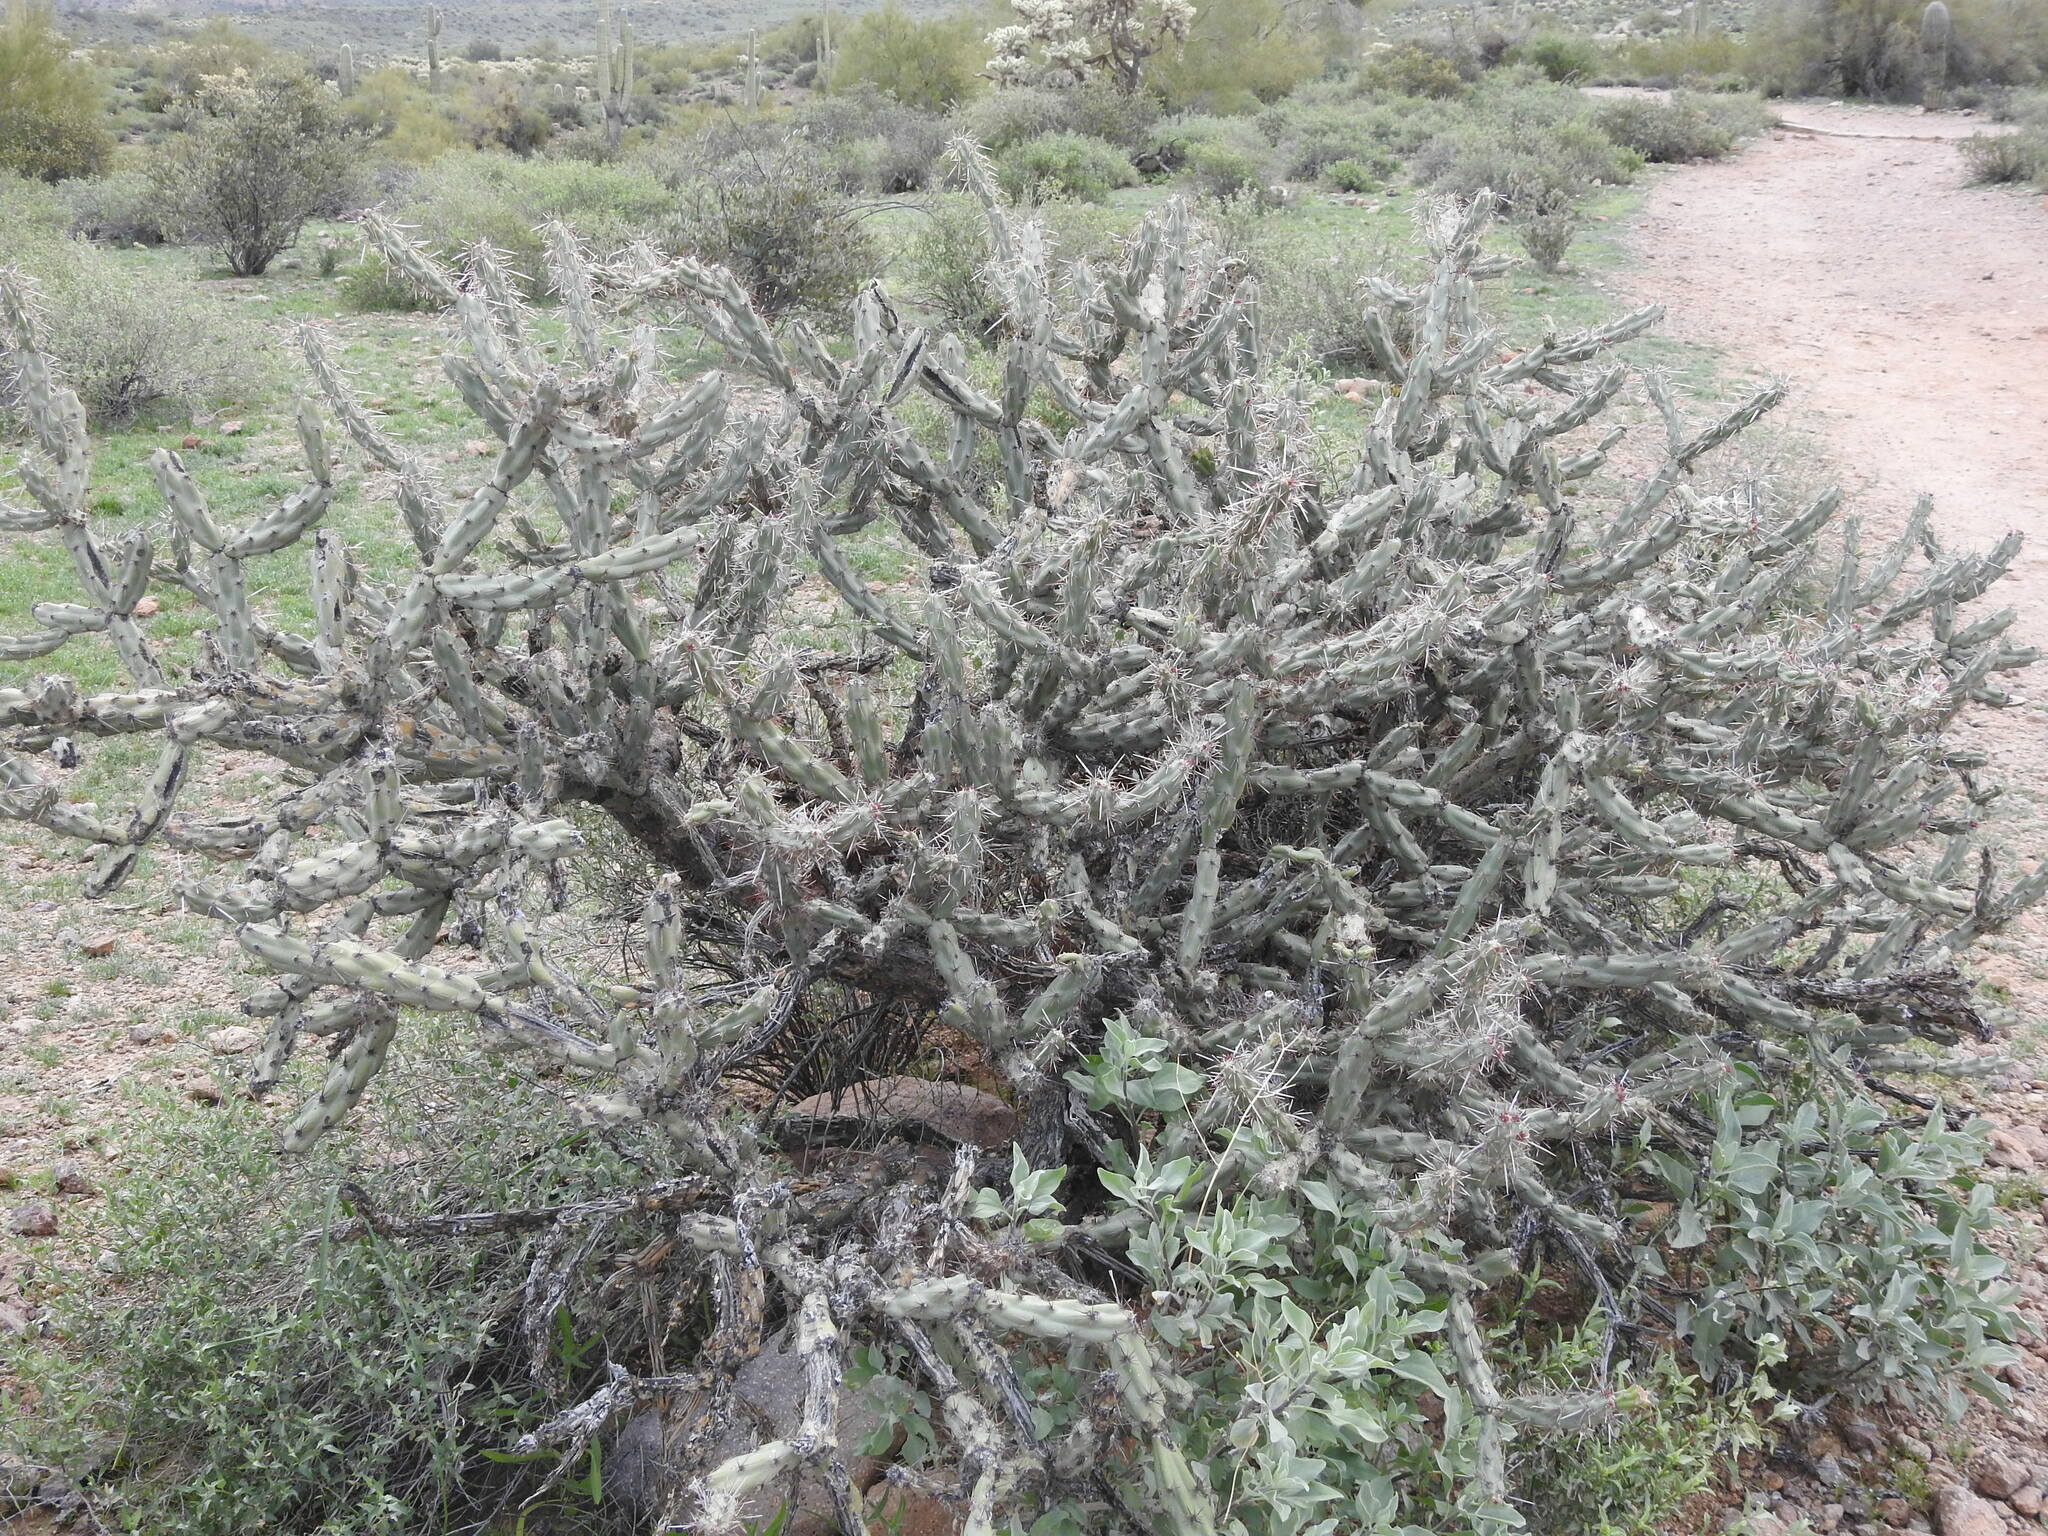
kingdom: Plantae
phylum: Tracheophyta
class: Magnoliopsida
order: Caryophyllales
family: Cactaceae
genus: Cylindropuntia
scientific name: Cylindropuntia acanthocarpa
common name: Buckhorn cholla
